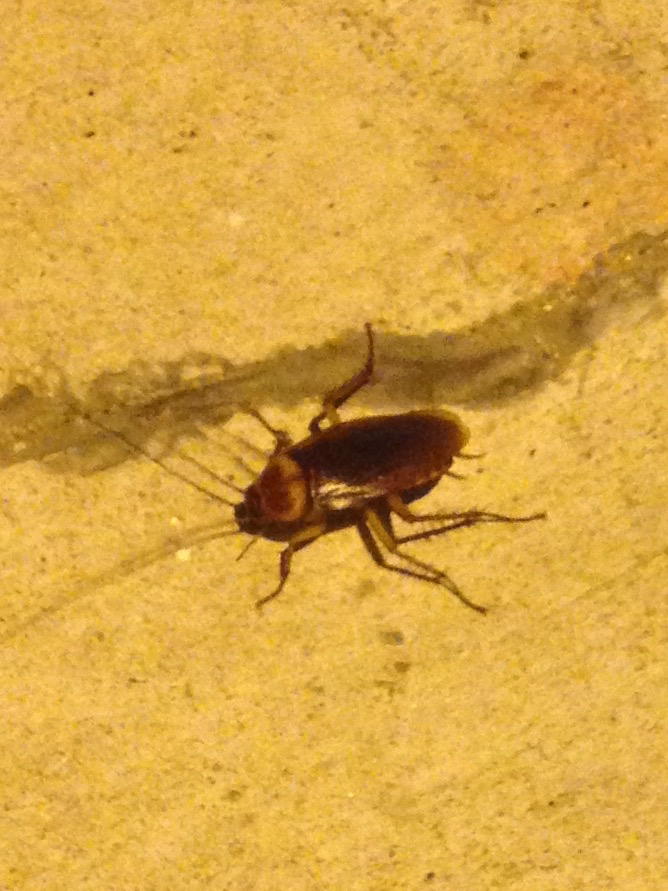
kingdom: Animalia
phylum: Arthropoda
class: Insecta
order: Blattodea
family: Blattidae
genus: Periplaneta
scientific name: Periplaneta americana
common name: American cockroach
